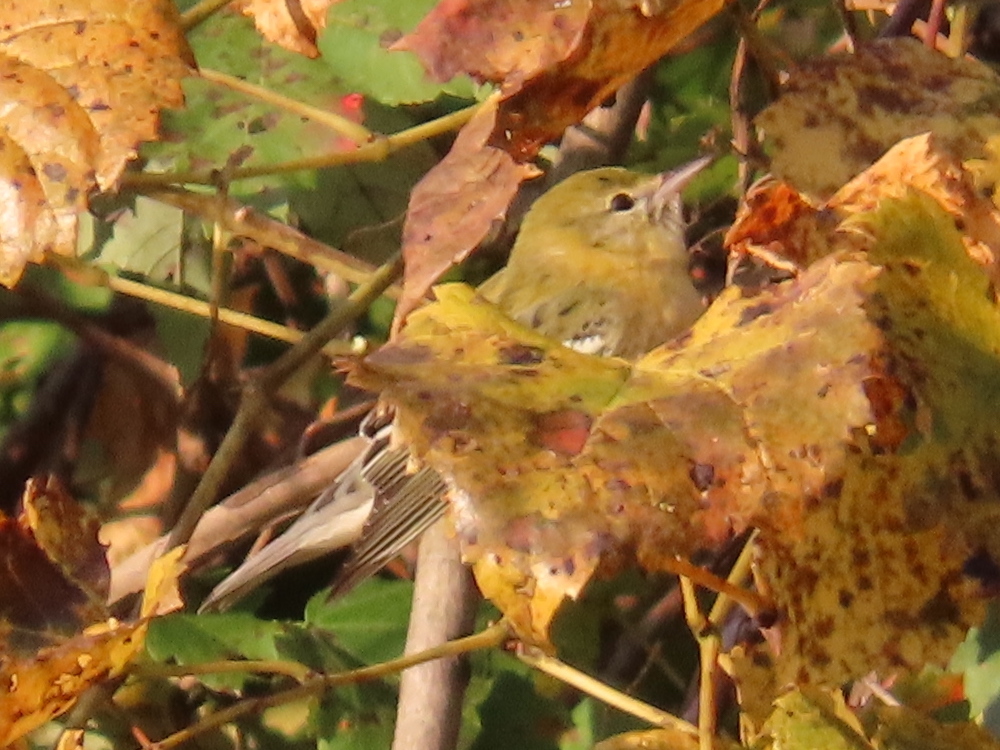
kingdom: Animalia
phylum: Chordata
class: Aves
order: Passeriformes
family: Parulidae
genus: Setophaga
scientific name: Setophaga castanea
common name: Bay-breasted warbler
